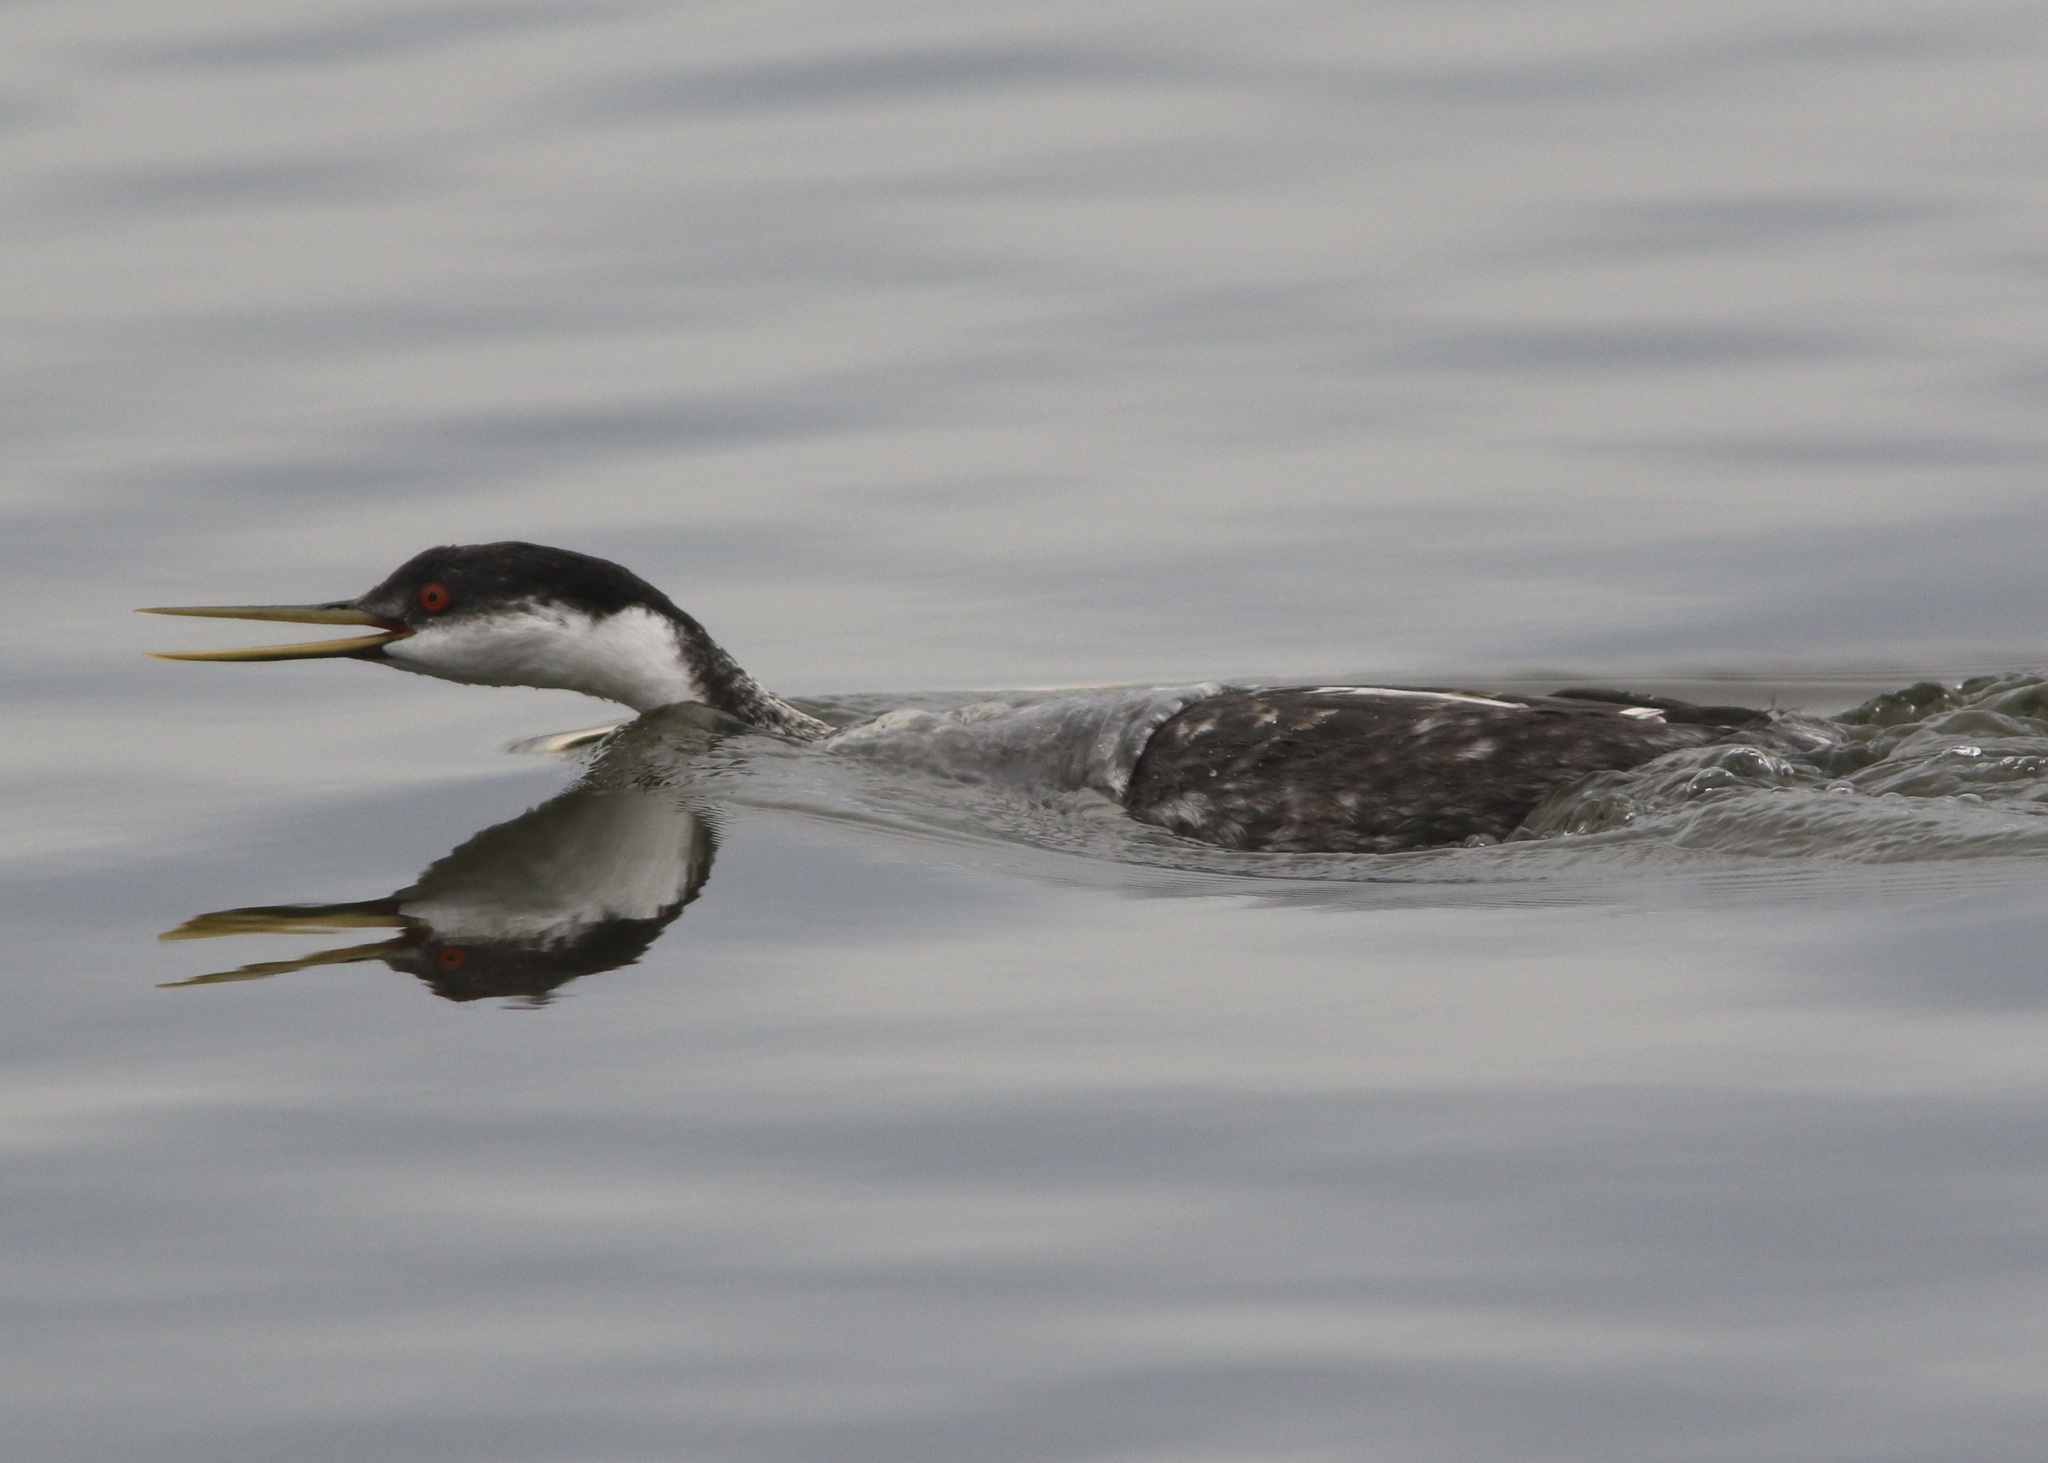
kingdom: Animalia
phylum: Chordata
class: Aves
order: Podicipediformes
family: Podicipedidae
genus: Aechmophorus
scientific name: Aechmophorus occidentalis
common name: Western grebe
